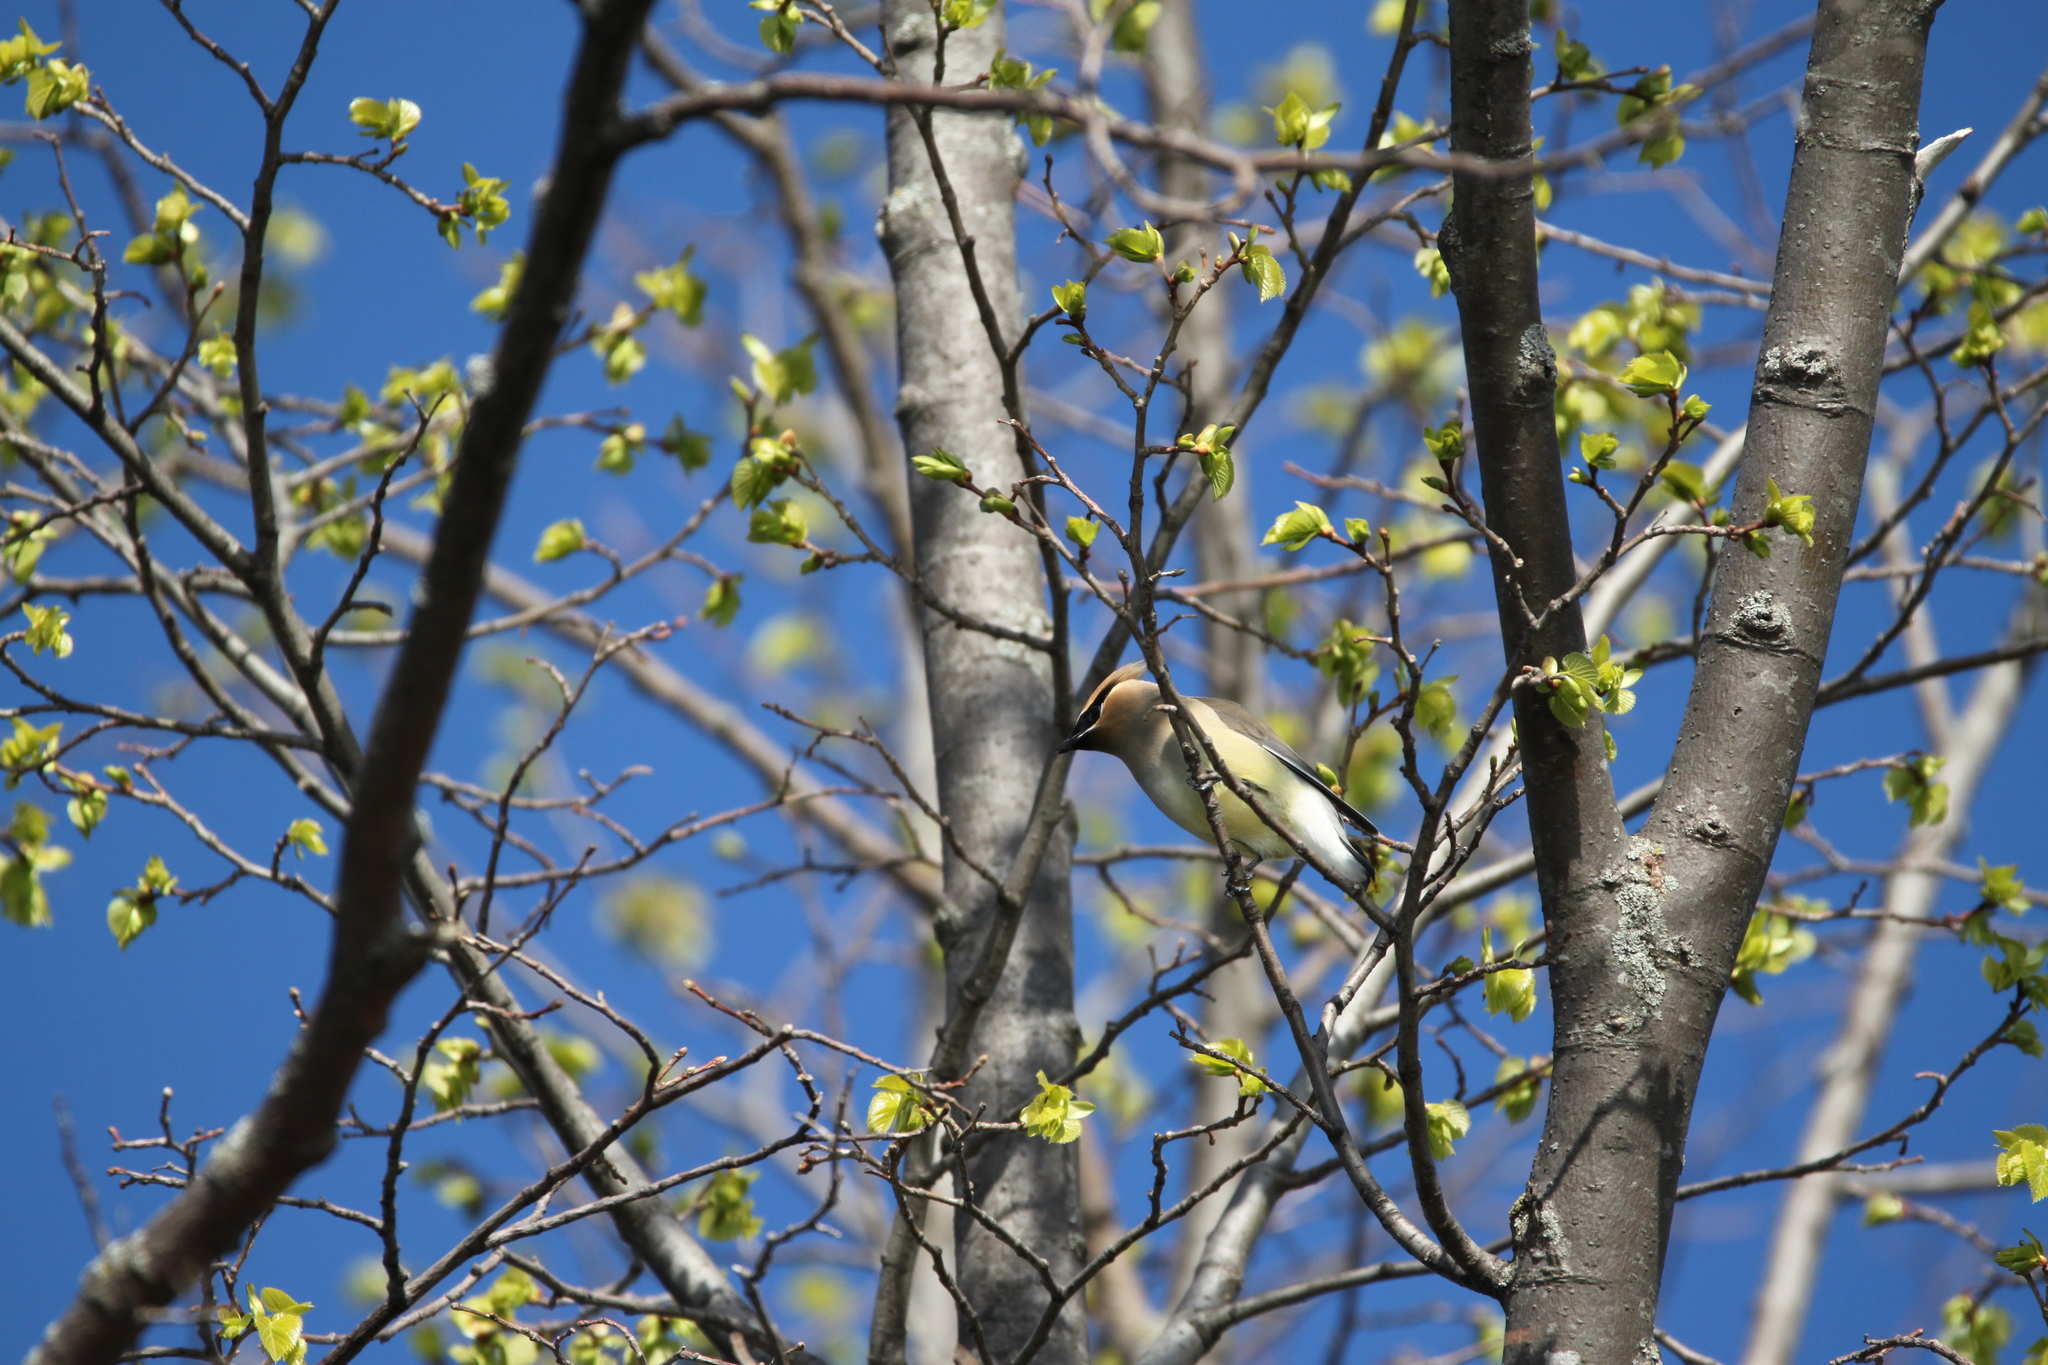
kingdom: Animalia
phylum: Chordata
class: Aves
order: Passeriformes
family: Bombycillidae
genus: Bombycilla
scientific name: Bombycilla cedrorum
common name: Cedar waxwing
